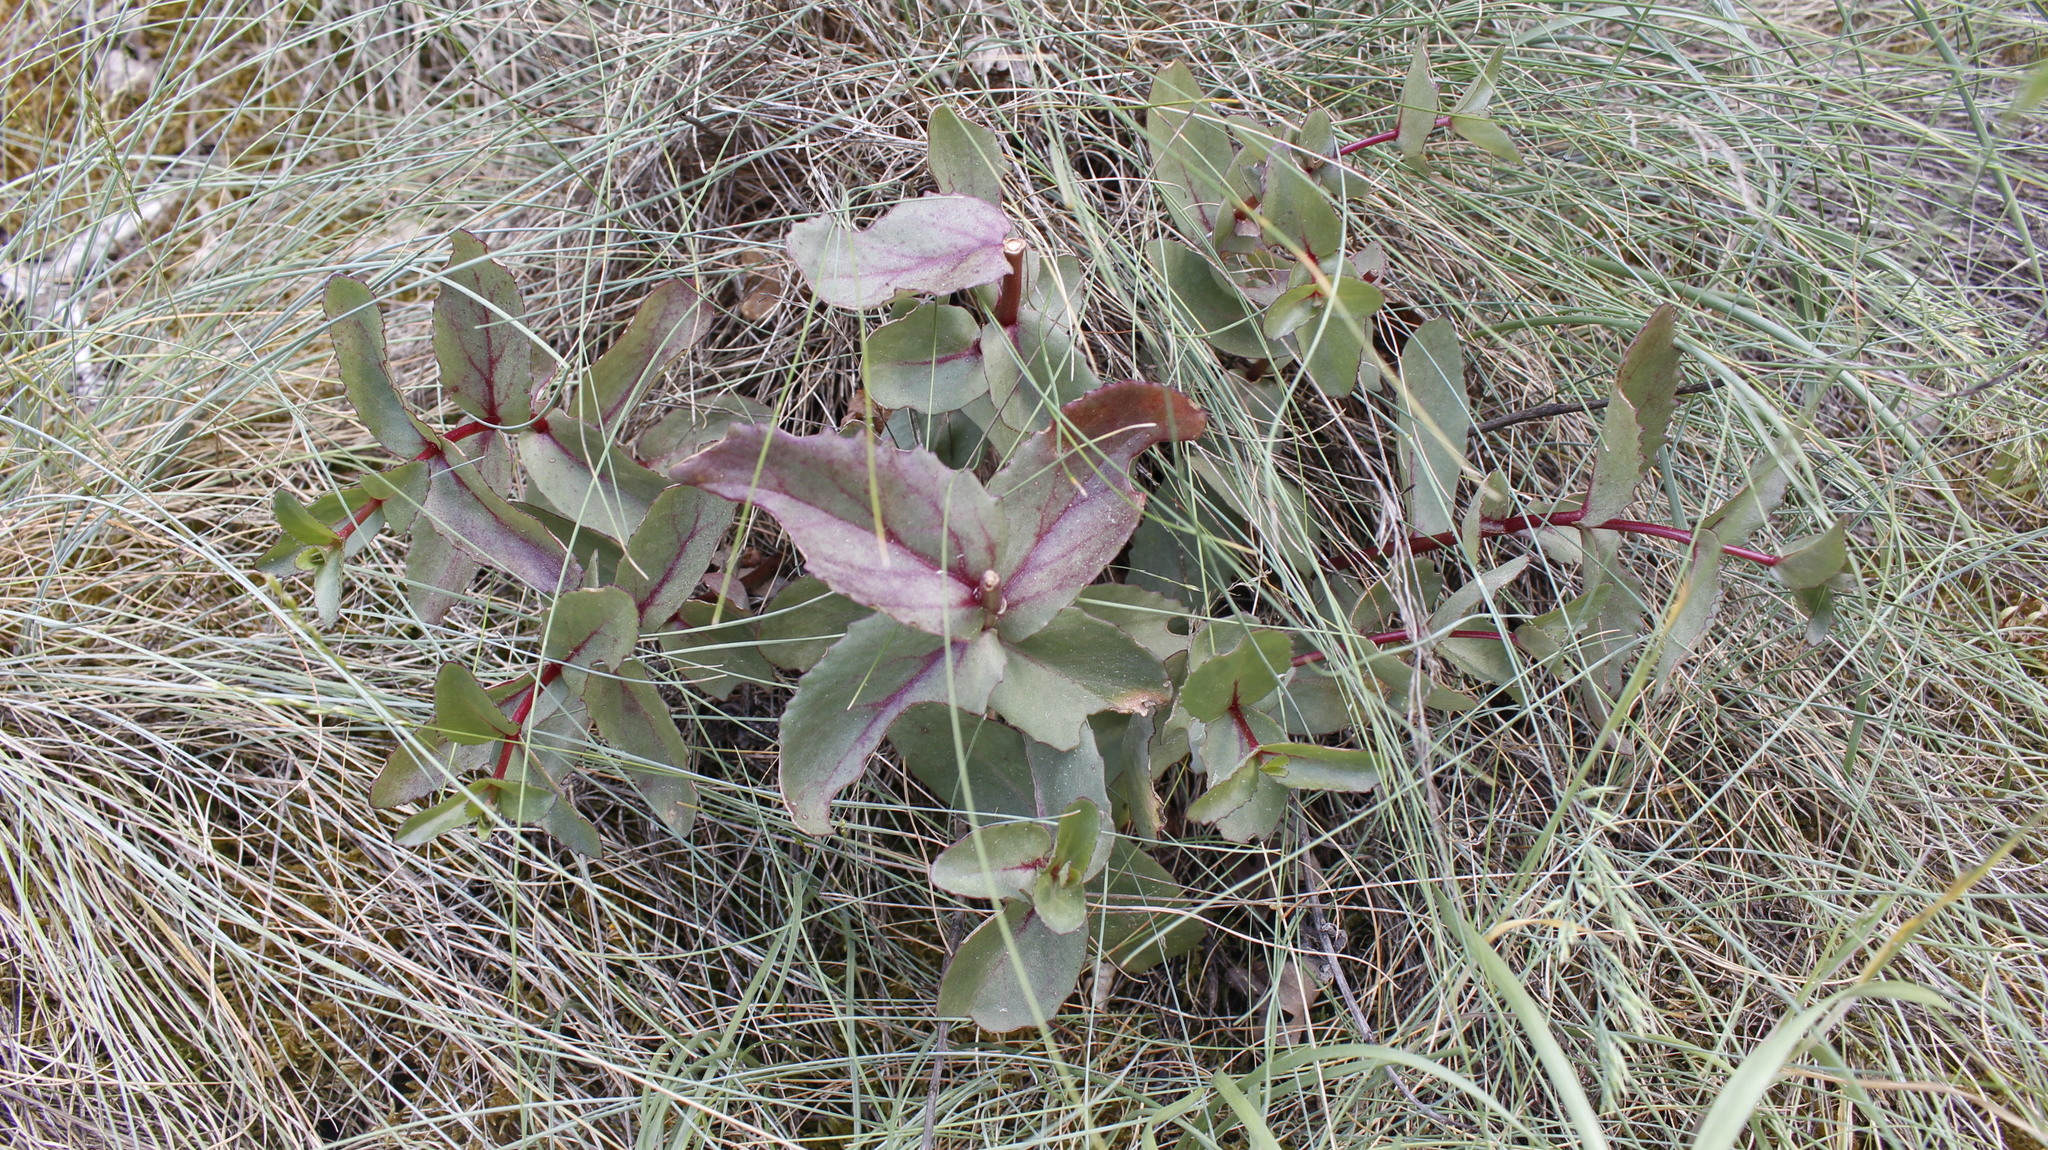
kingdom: Plantae
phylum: Tracheophyta
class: Magnoliopsida
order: Saxifragales
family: Crassulaceae
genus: Hylotelephium
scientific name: Hylotelephium maximum
